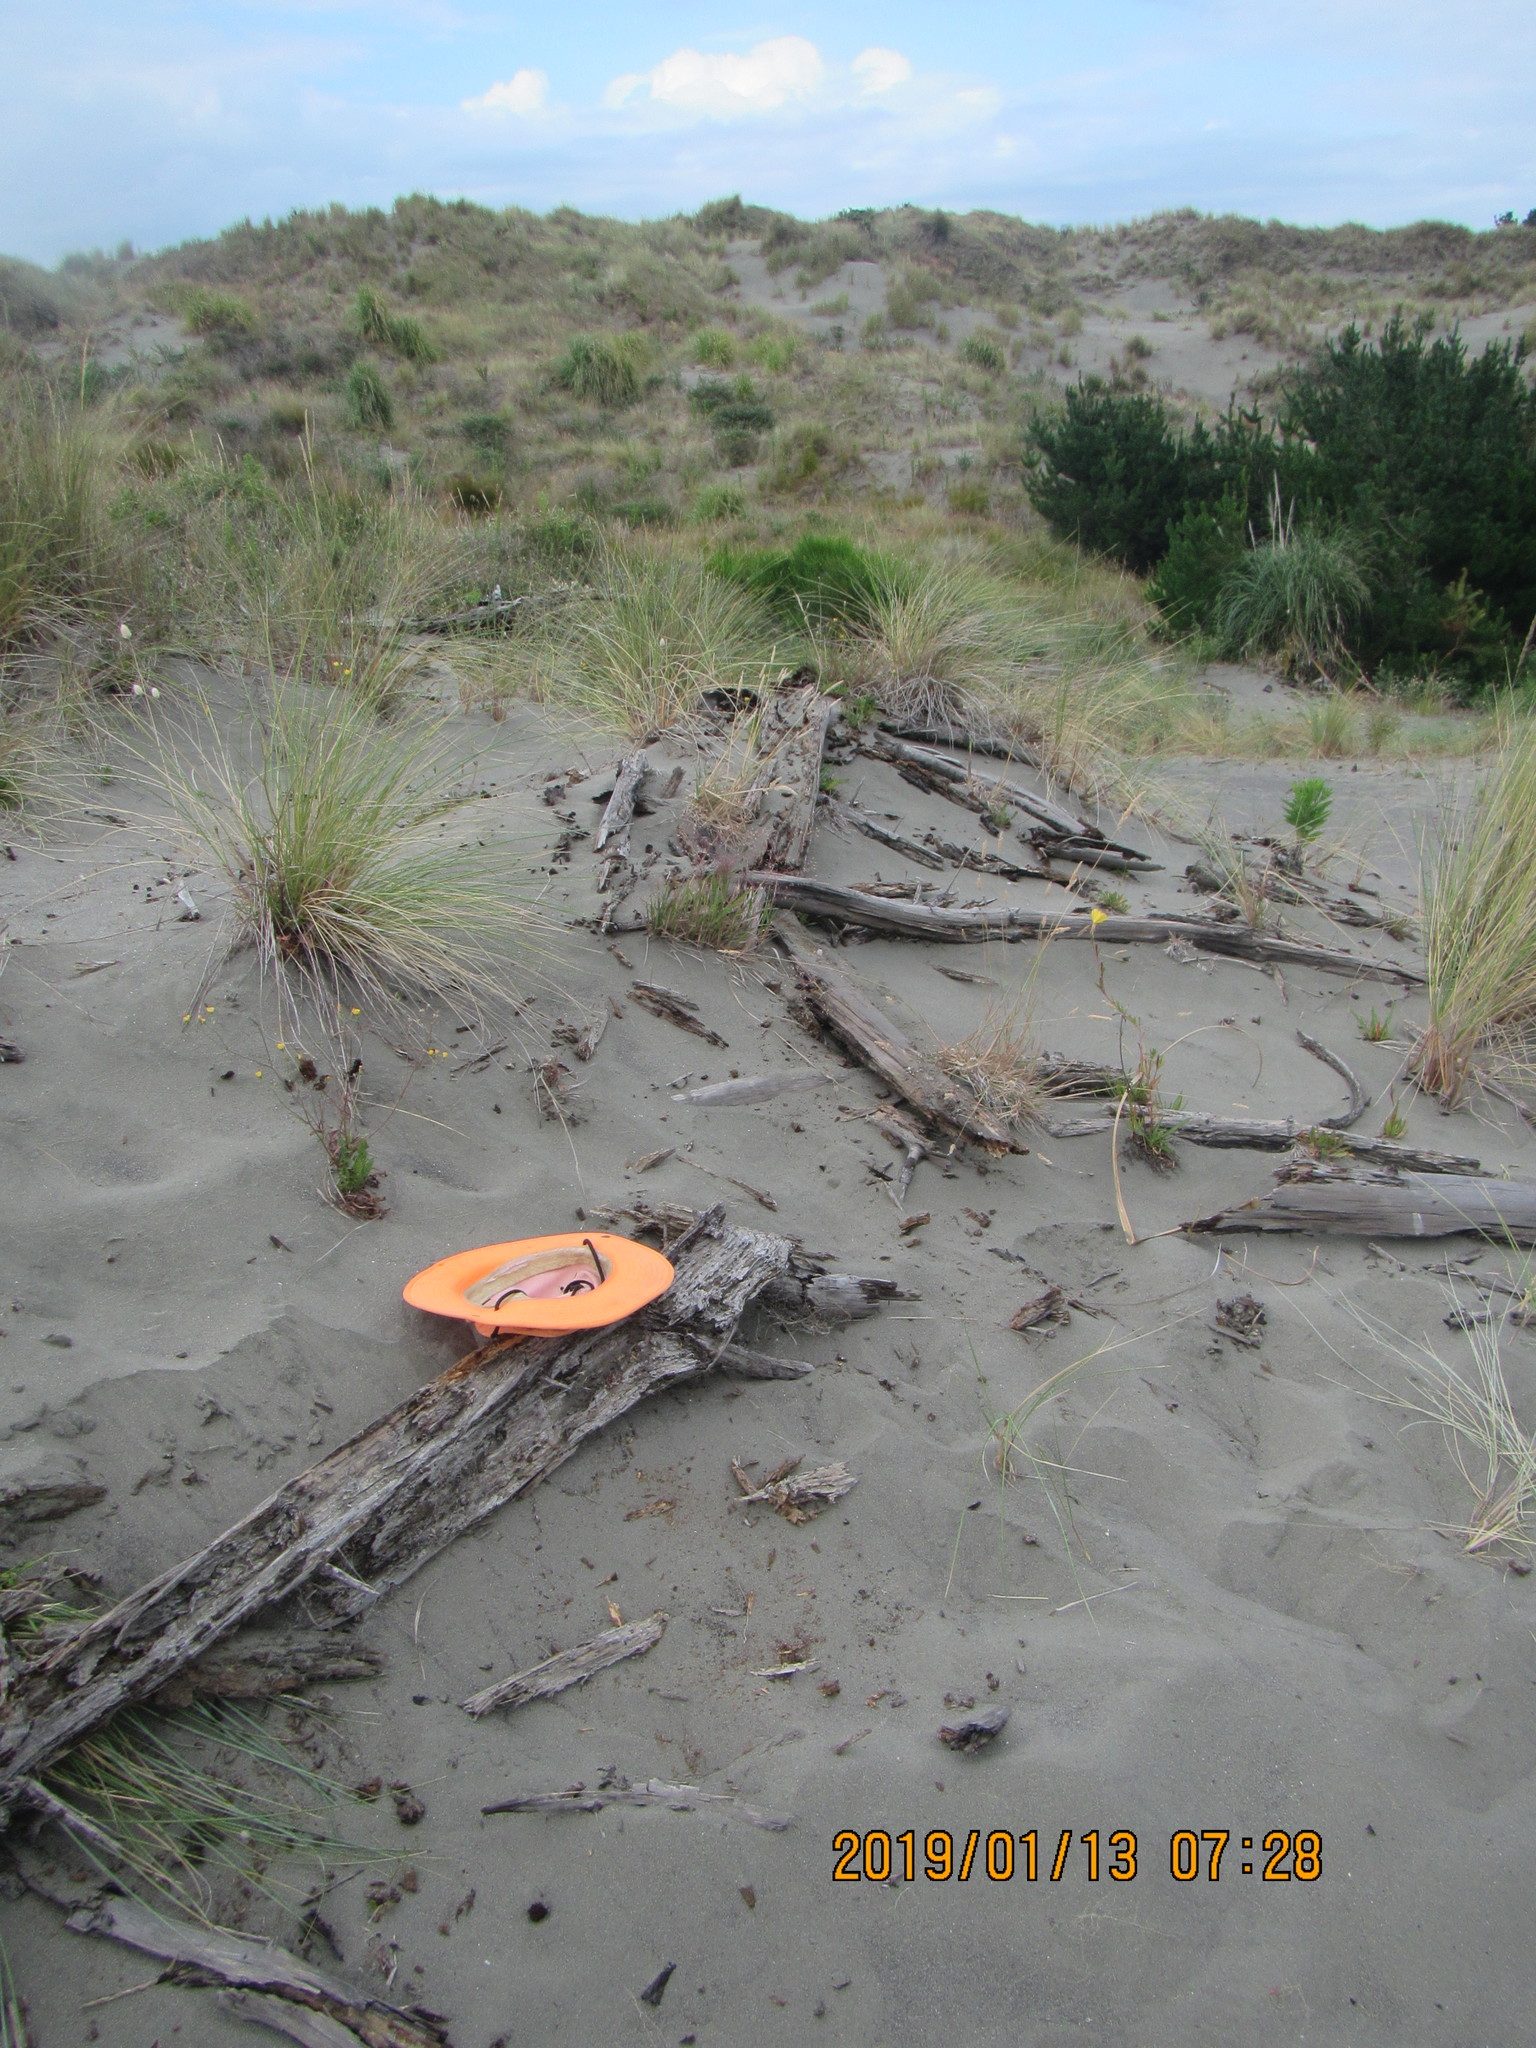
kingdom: Animalia
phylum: Arthropoda
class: Malacostraca
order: Isopoda
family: Armadillidiidae
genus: Armadillidium
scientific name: Armadillidium vulgare
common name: Common pill woodlouse
